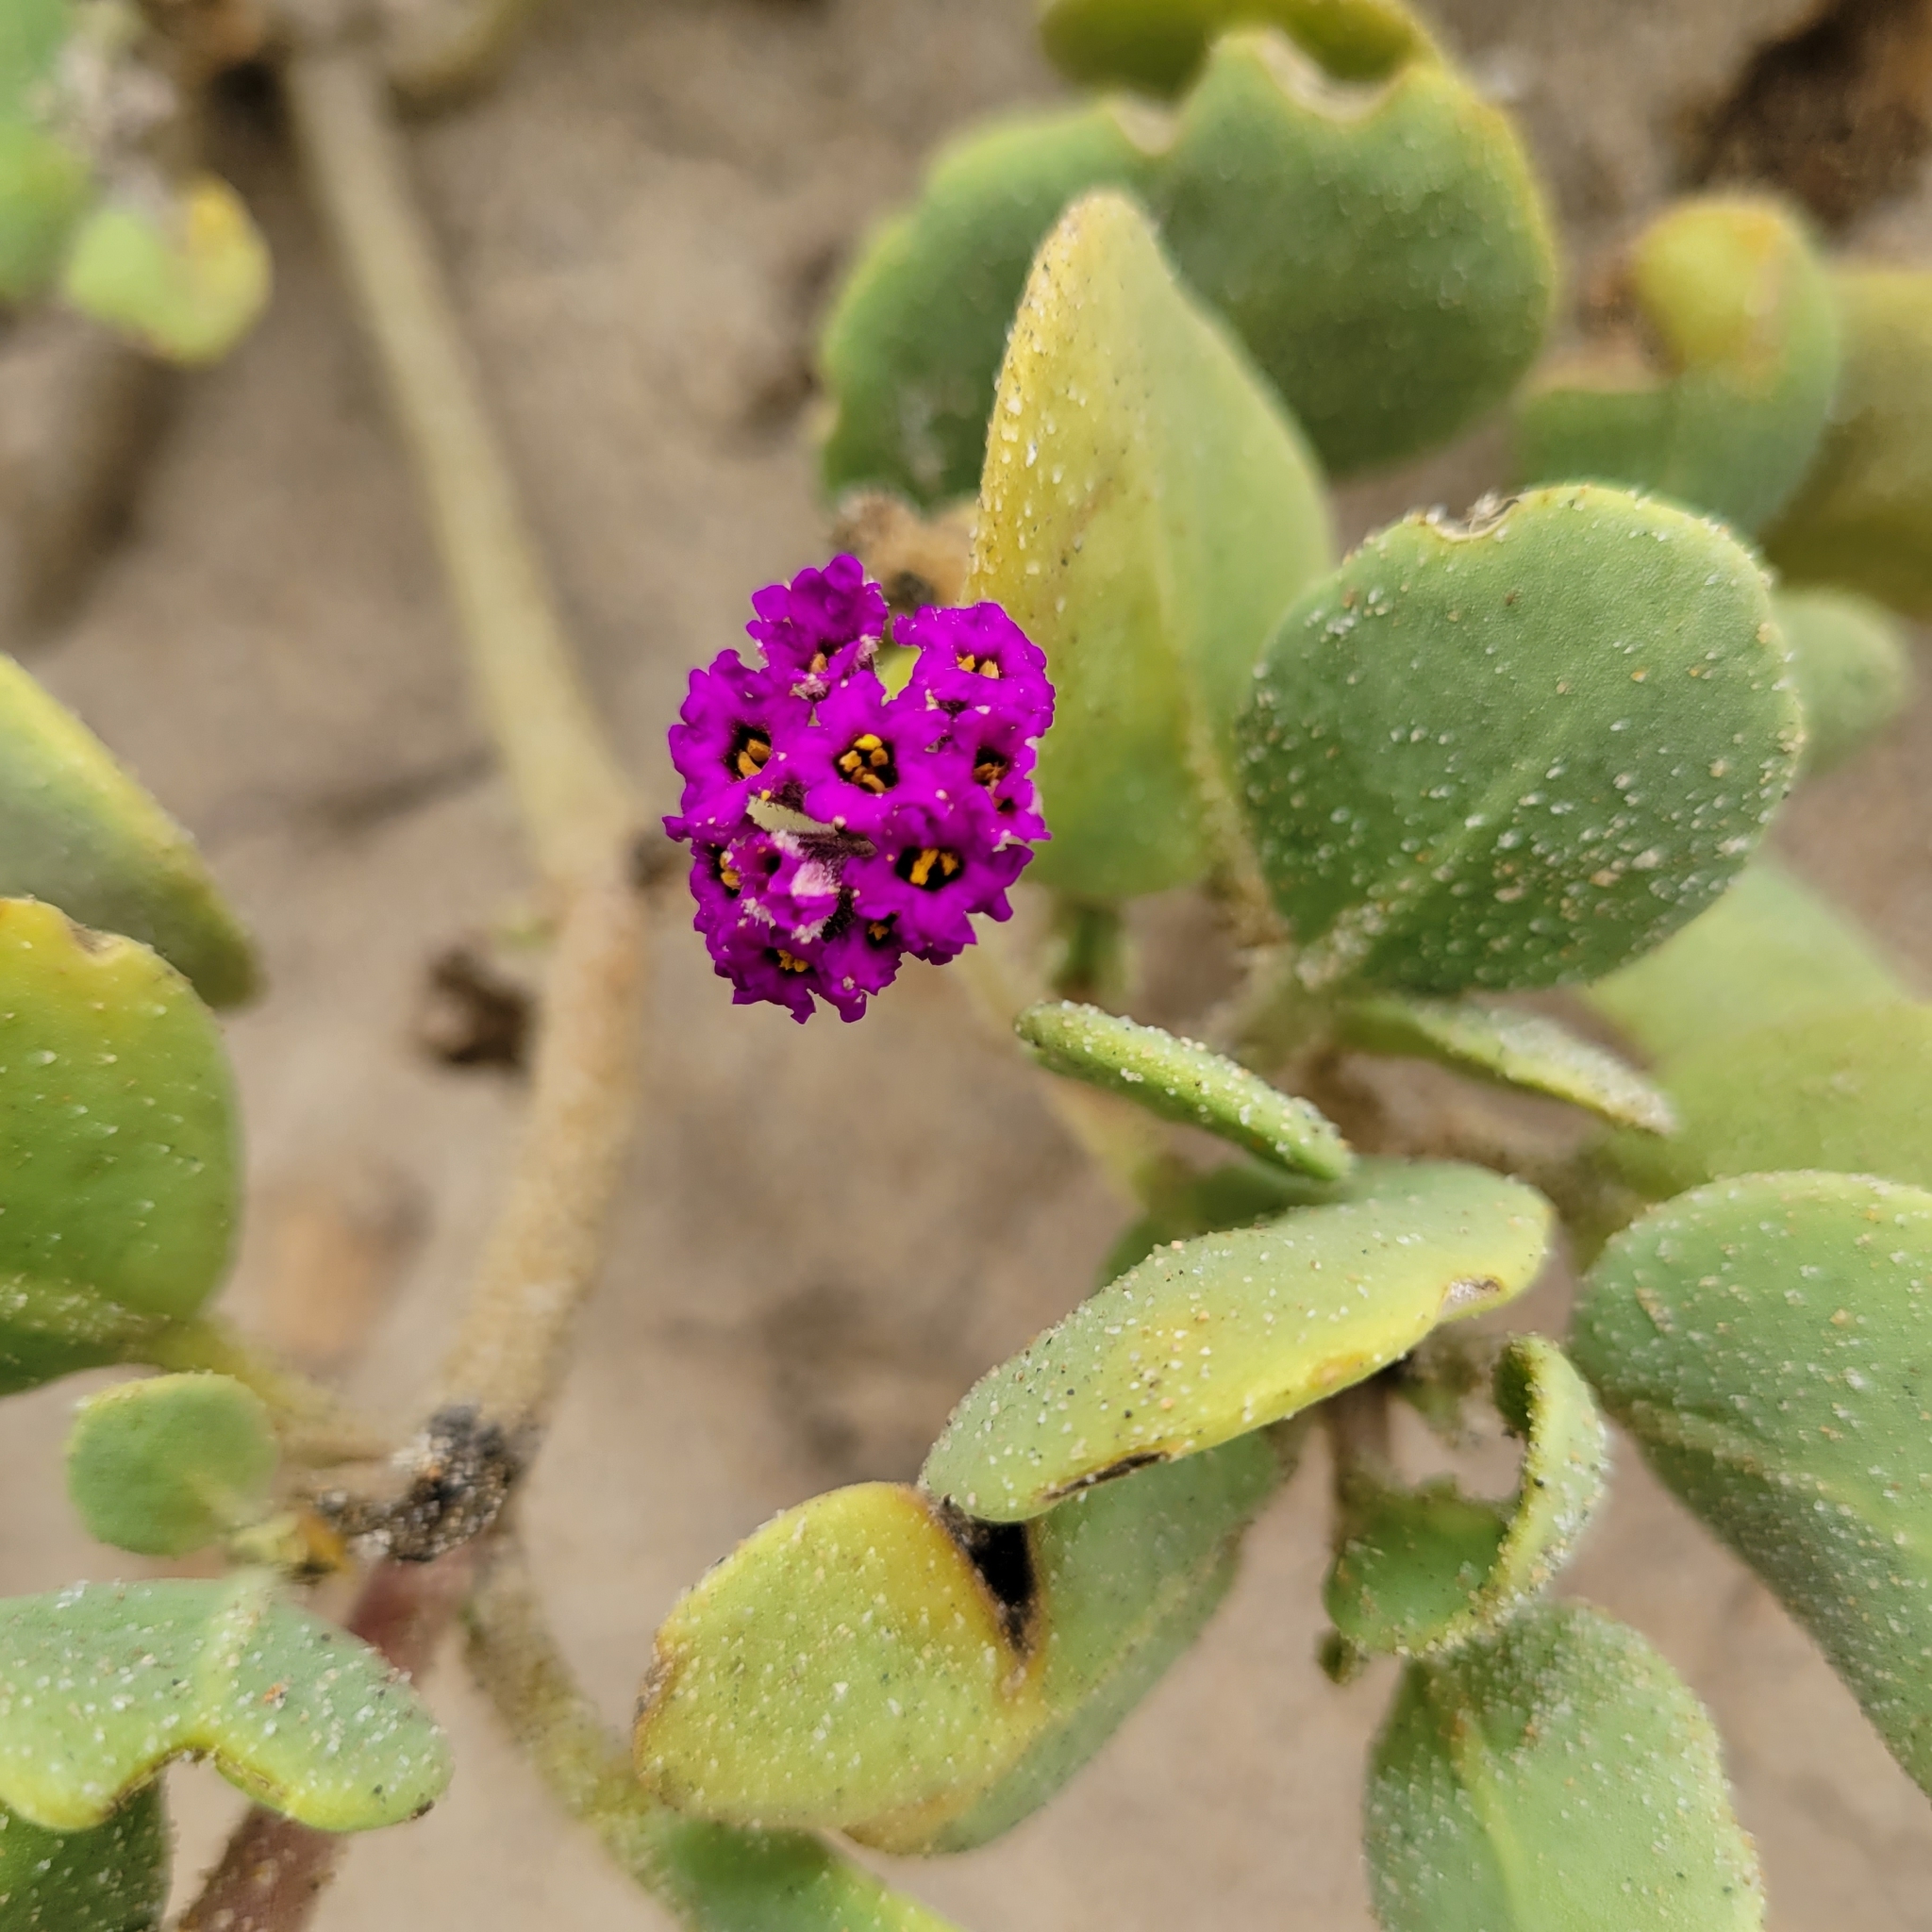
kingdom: Plantae
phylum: Tracheophyta
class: Magnoliopsida
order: Caryophyllales
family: Nyctaginaceae
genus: Abronia
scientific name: Abronia maritima
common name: Red sand-verbena
